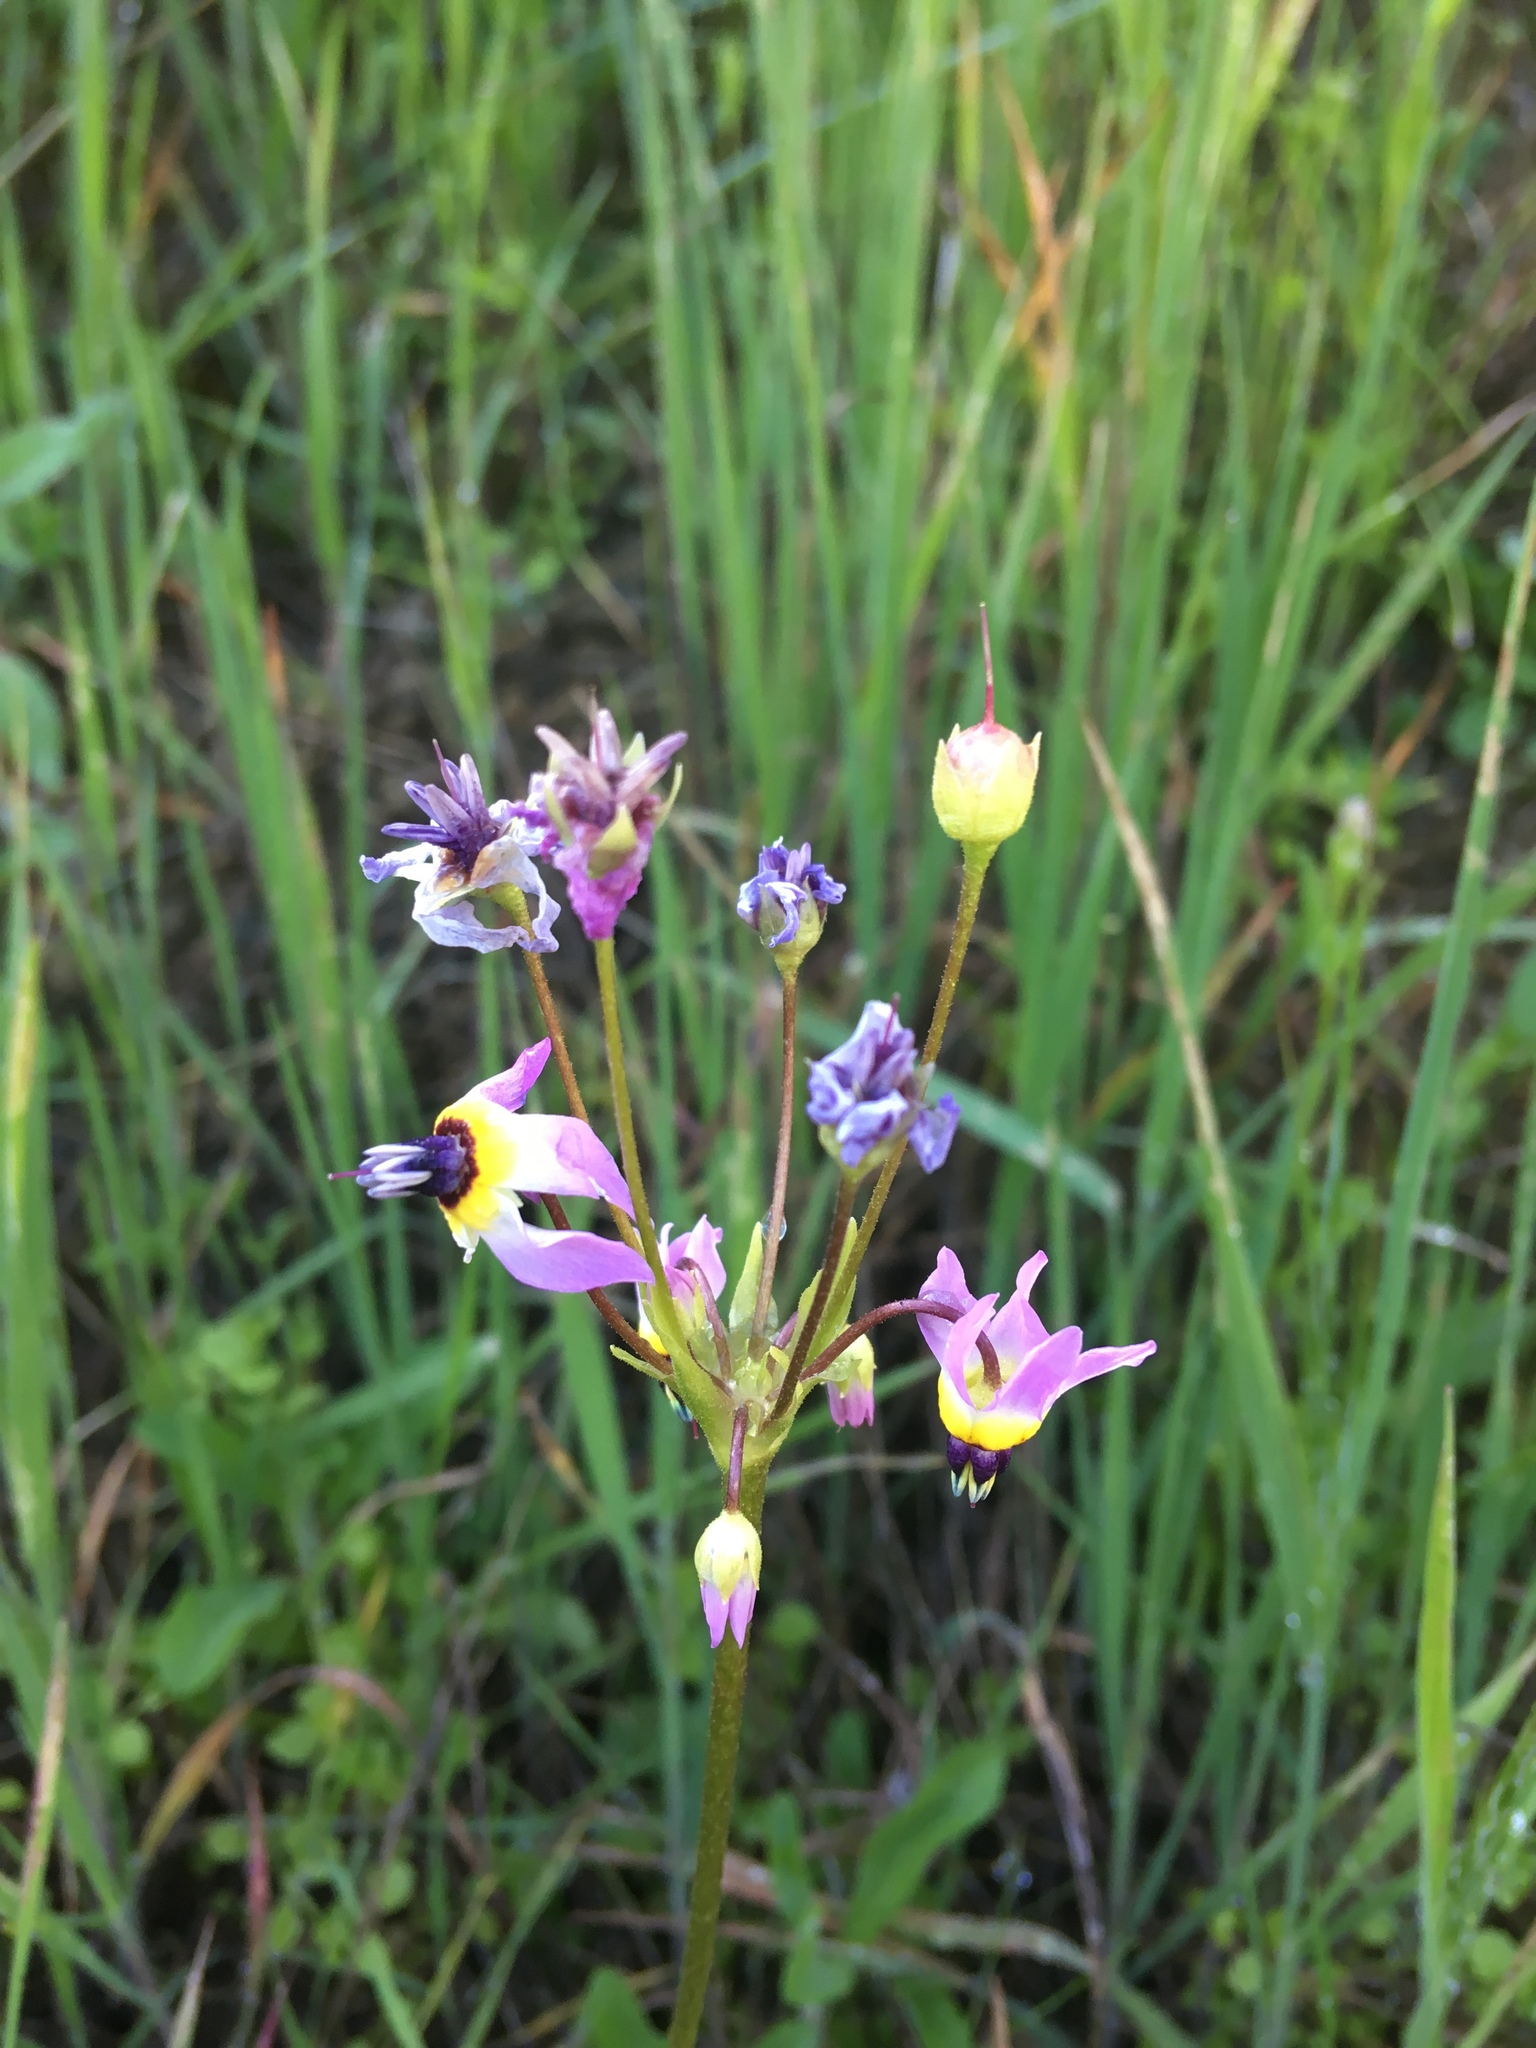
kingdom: Plantae
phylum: Tracheophyta
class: Magnoliopsida
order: Ericales
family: Primulaceae
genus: Dodecatheon
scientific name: Dodecatheon clevelandii
